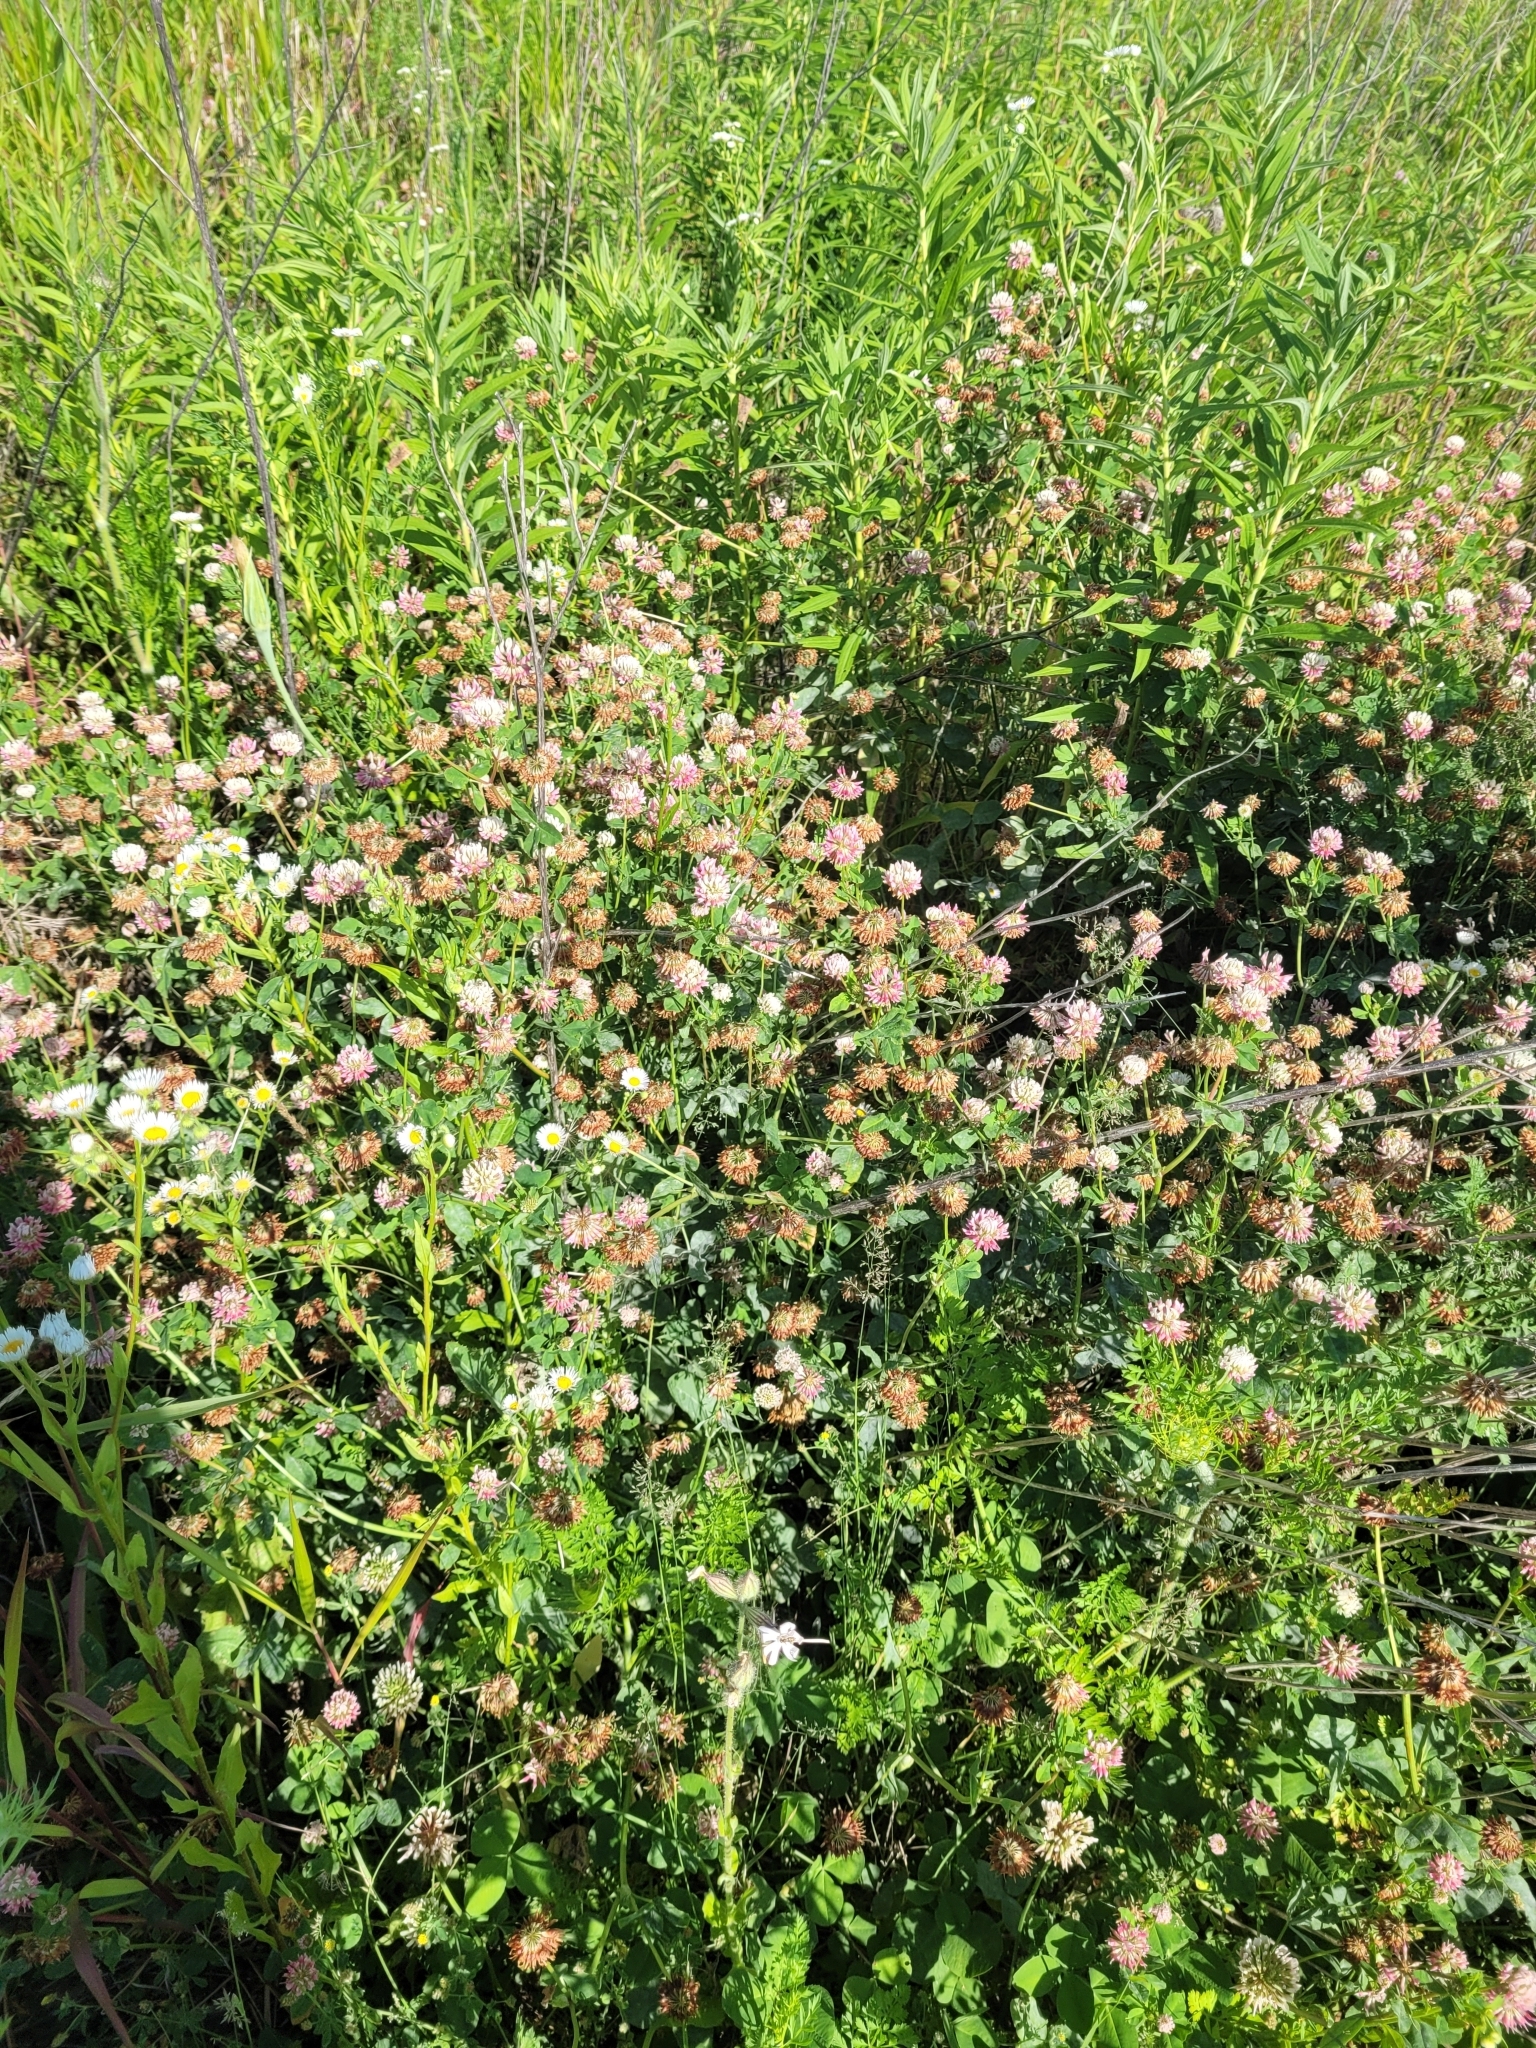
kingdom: Plantae
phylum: Tracheophyta
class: Magnoliopsida
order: Fabales
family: Fabaceae
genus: Trifolium
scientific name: Trifolium hybridum
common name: Alsike clover
